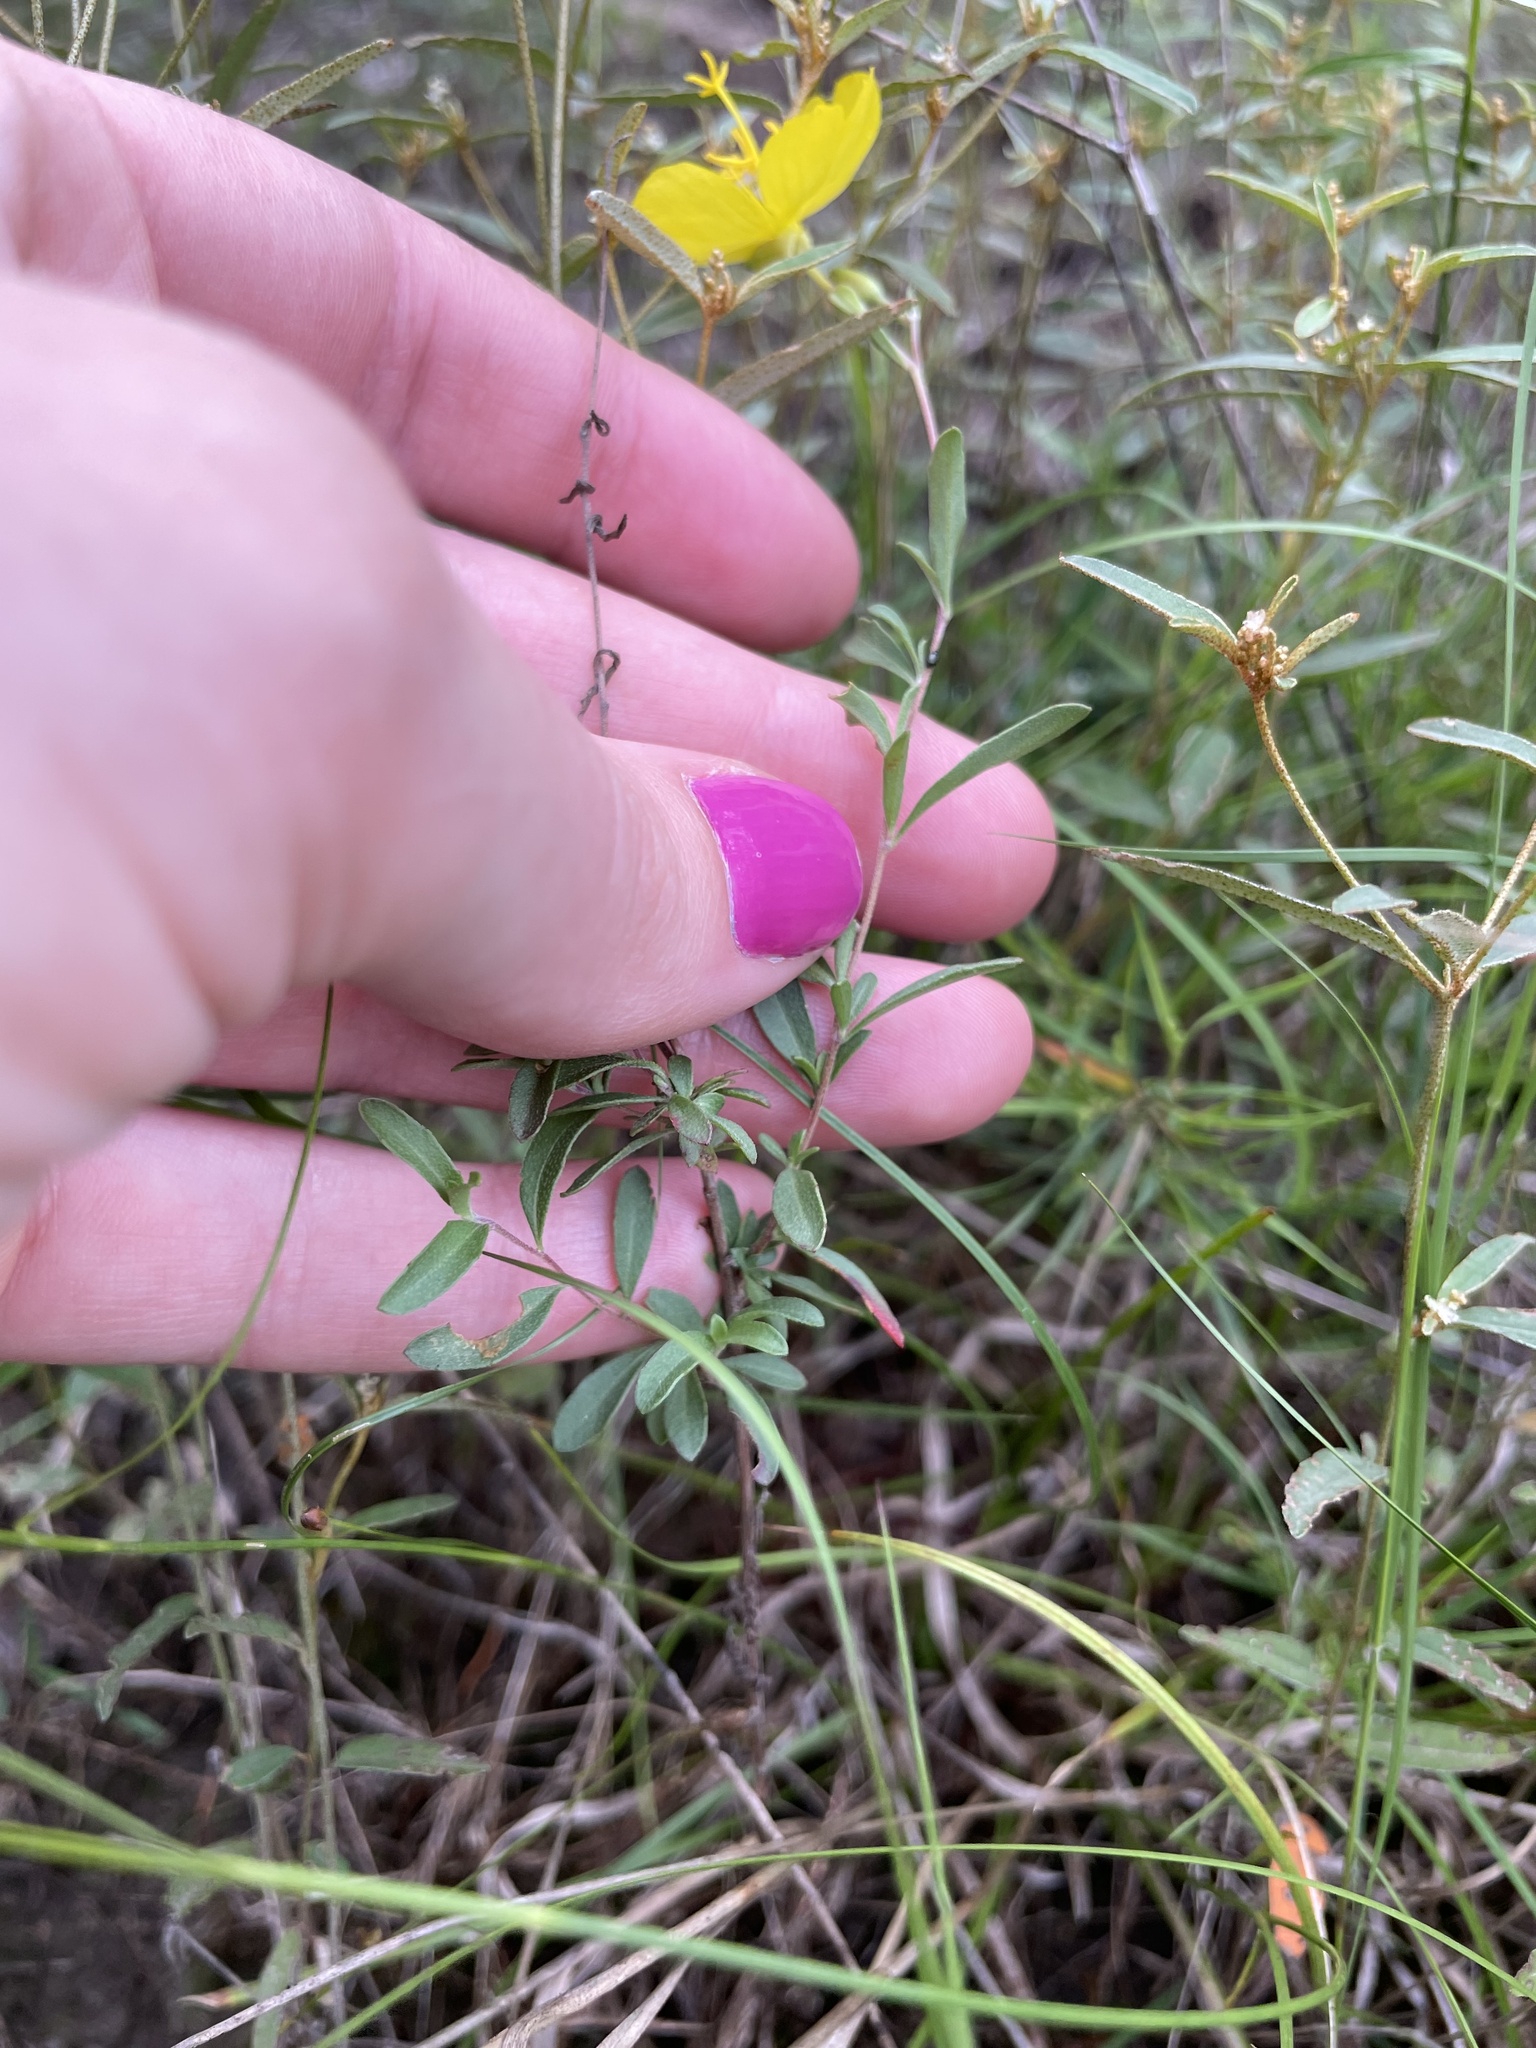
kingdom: Plantae
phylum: Tracheophyta
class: Magnoliopsida
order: Myrtales
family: Onagraceae
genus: Oenothera
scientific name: Oenothera fruticosa
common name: Southern sundrops
